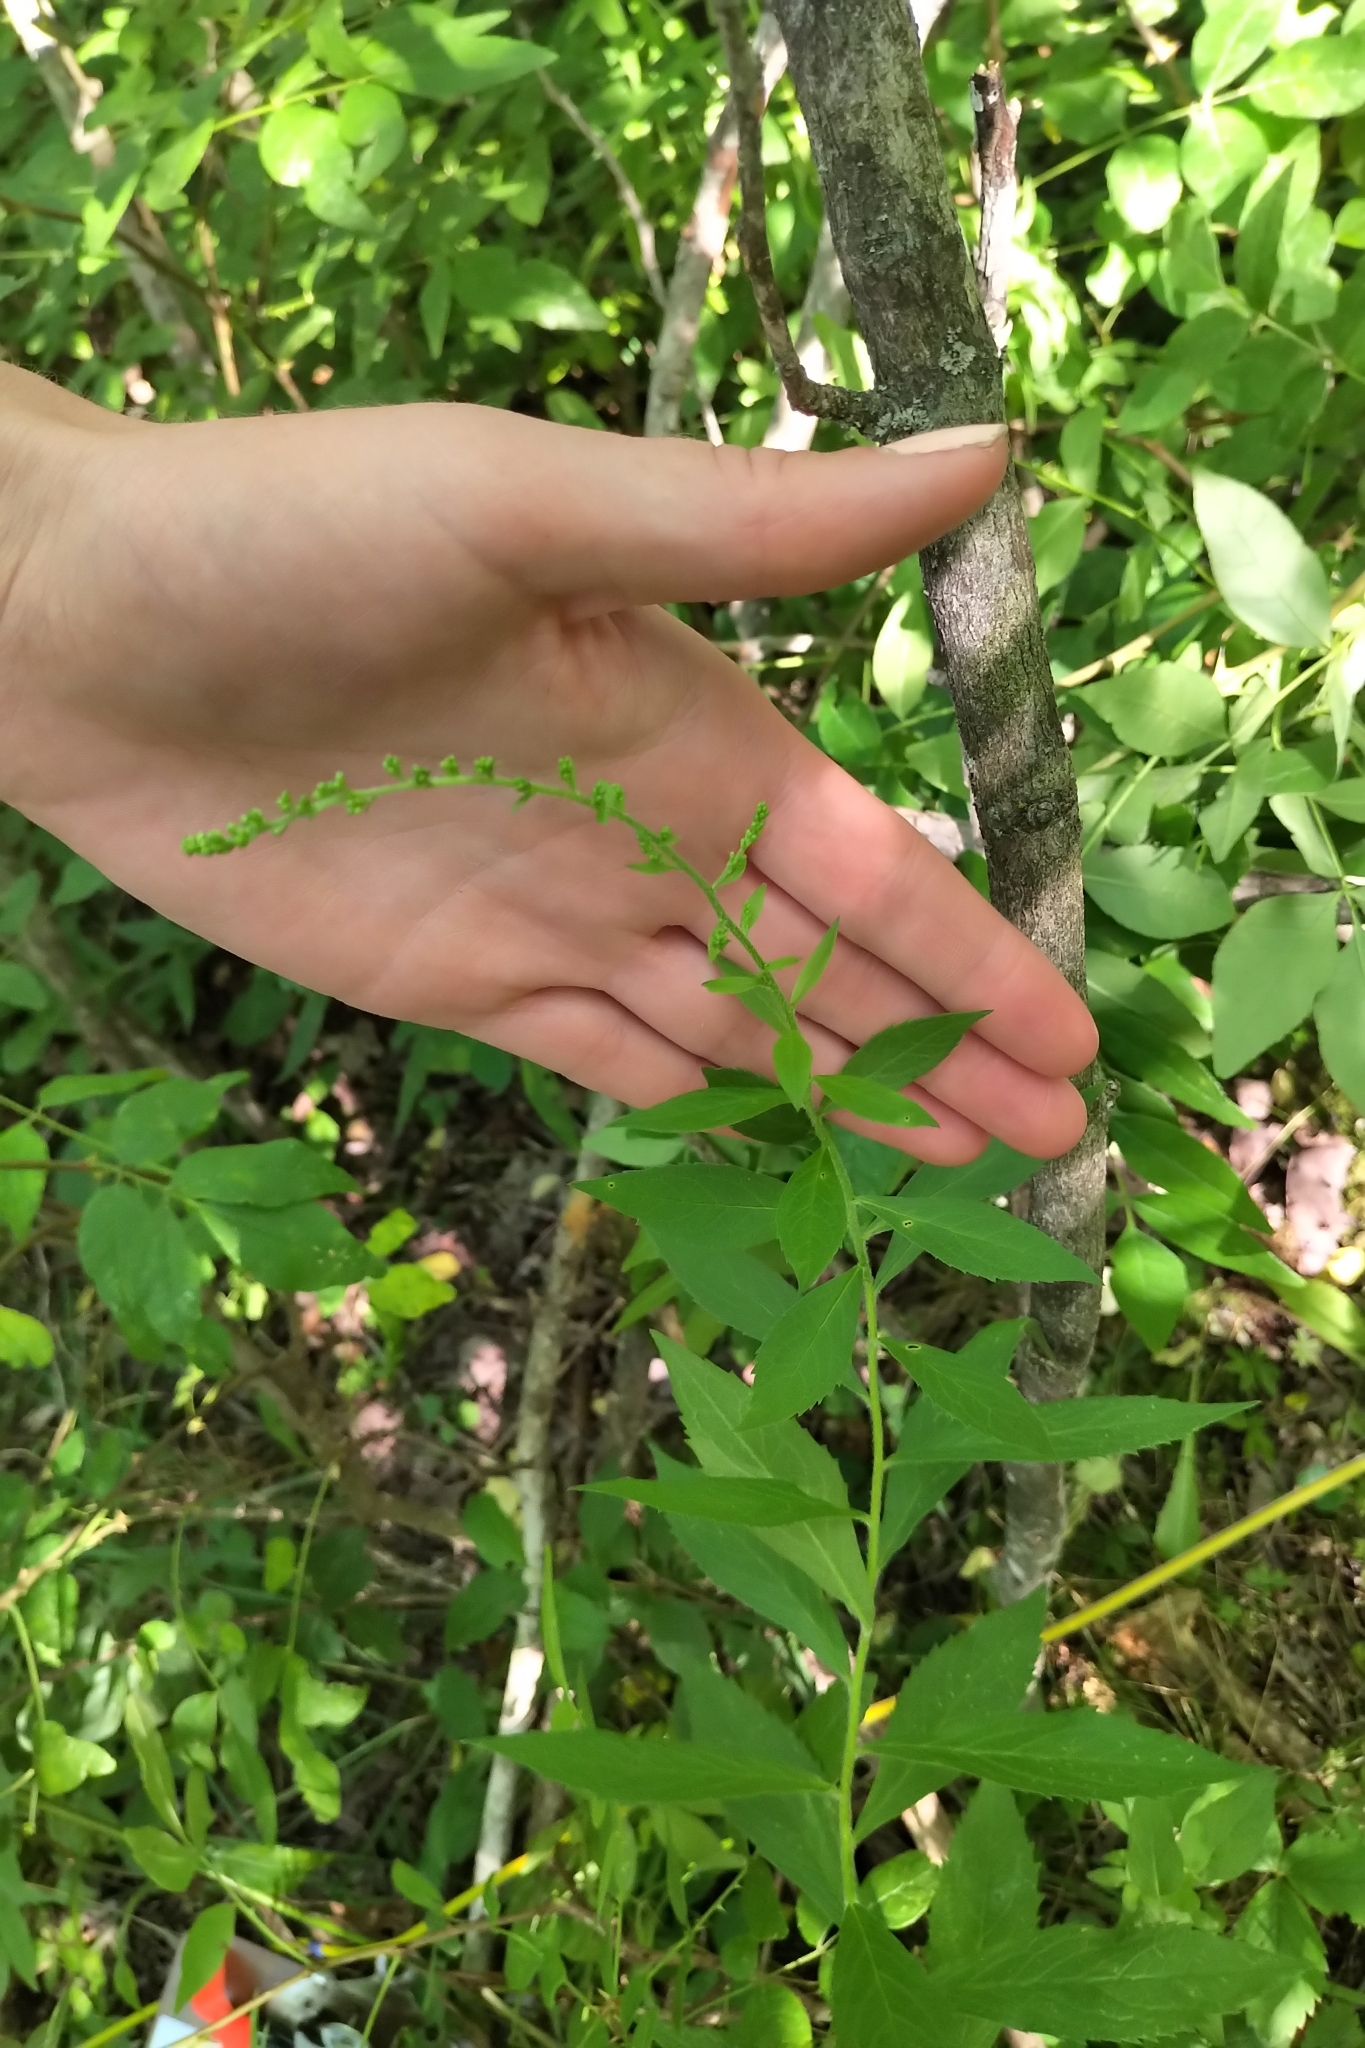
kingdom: Plantae
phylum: Tracheophyta
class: Magnoliopsida
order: Asterales
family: Asteraceae
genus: Solidago
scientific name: Solidago rugosa
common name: Rough-stemmed goldenrod
